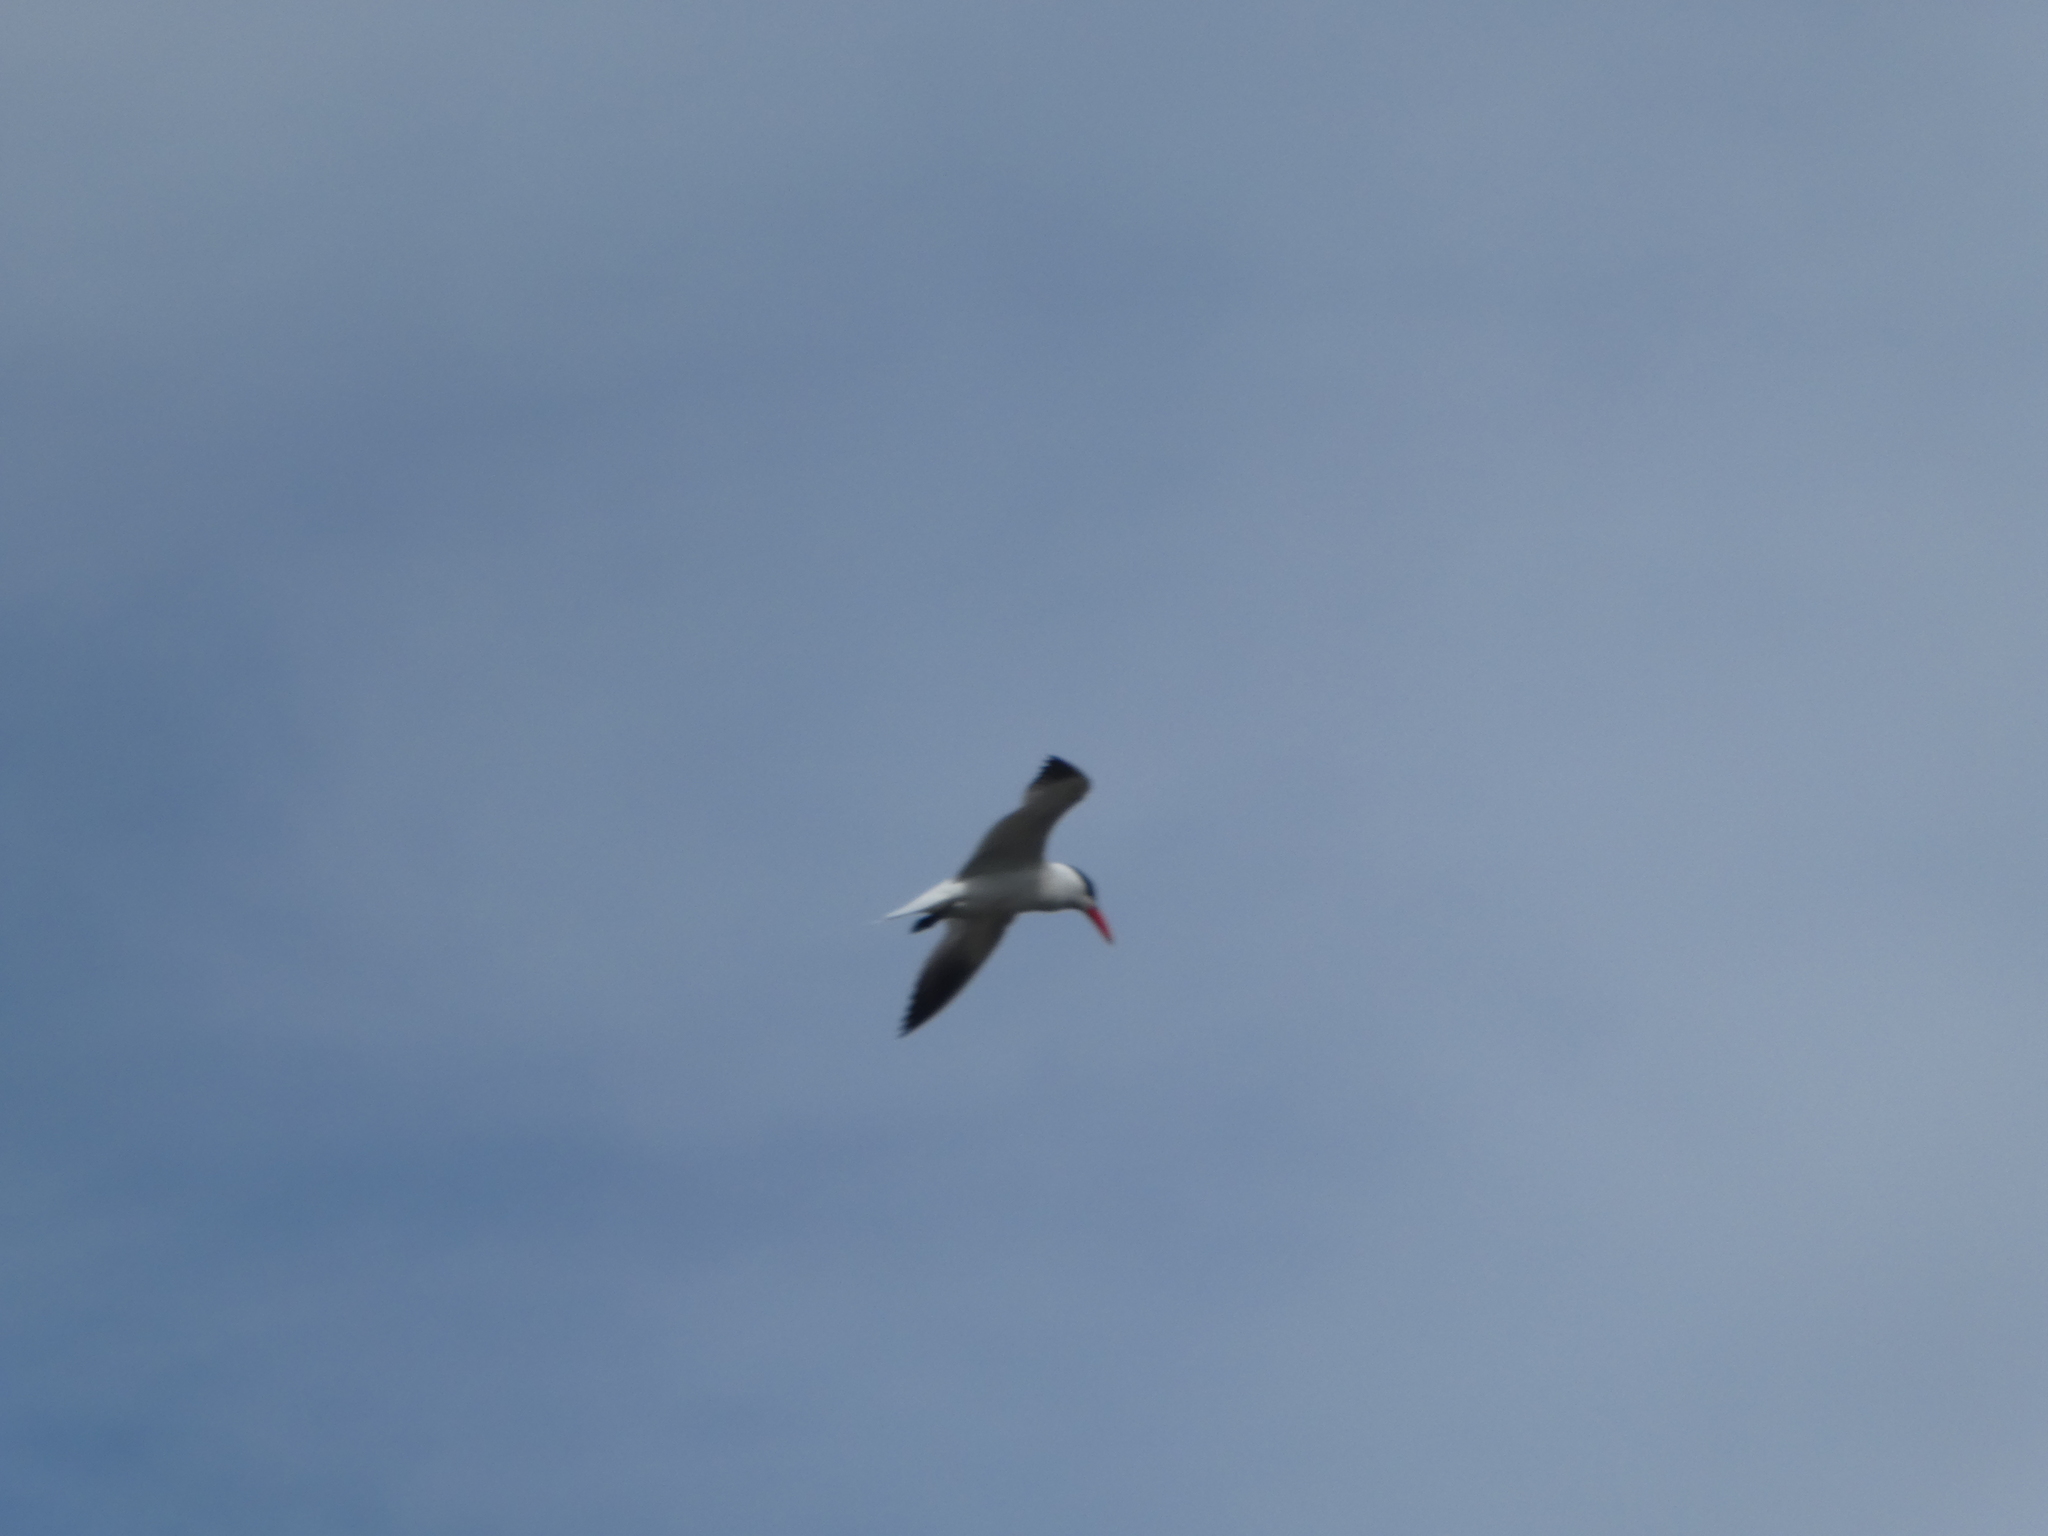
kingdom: Animalia
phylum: Chordata
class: Aves
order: Charadriiformes
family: Laridae
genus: Hydroprogne
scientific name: Hydroprogne caspia
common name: Caspian tern
